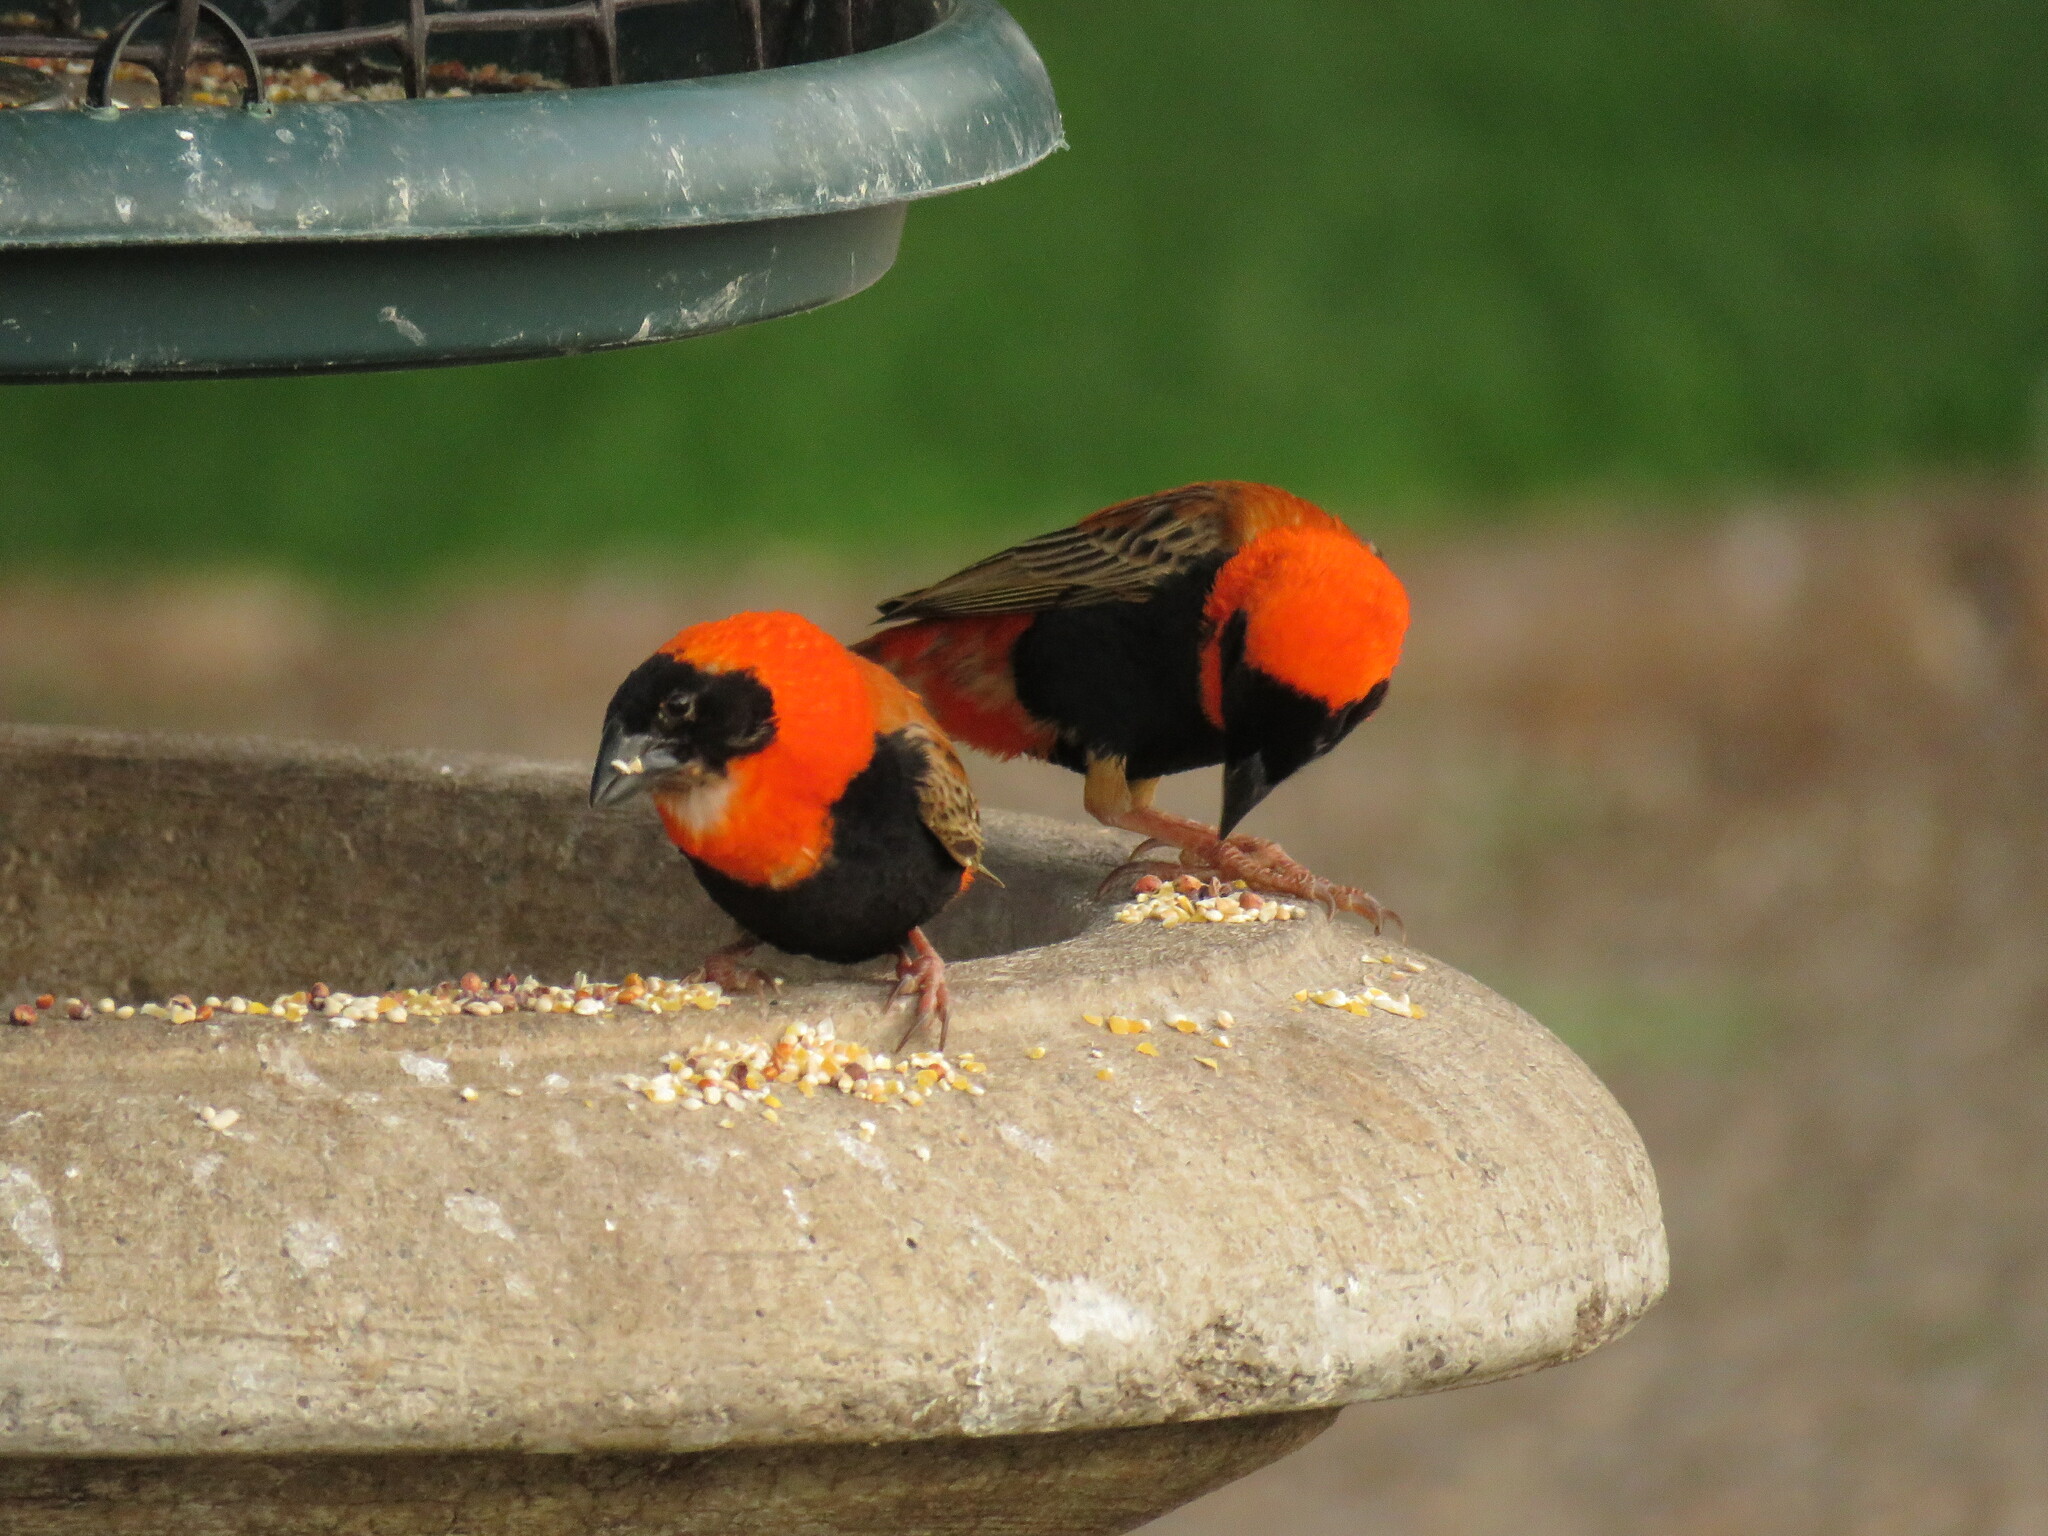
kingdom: Animalia
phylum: Chordata
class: Aves
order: Passeriformes
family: Ploceidae
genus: Euplectes
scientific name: Euplectes orix
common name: Southern red bishop
